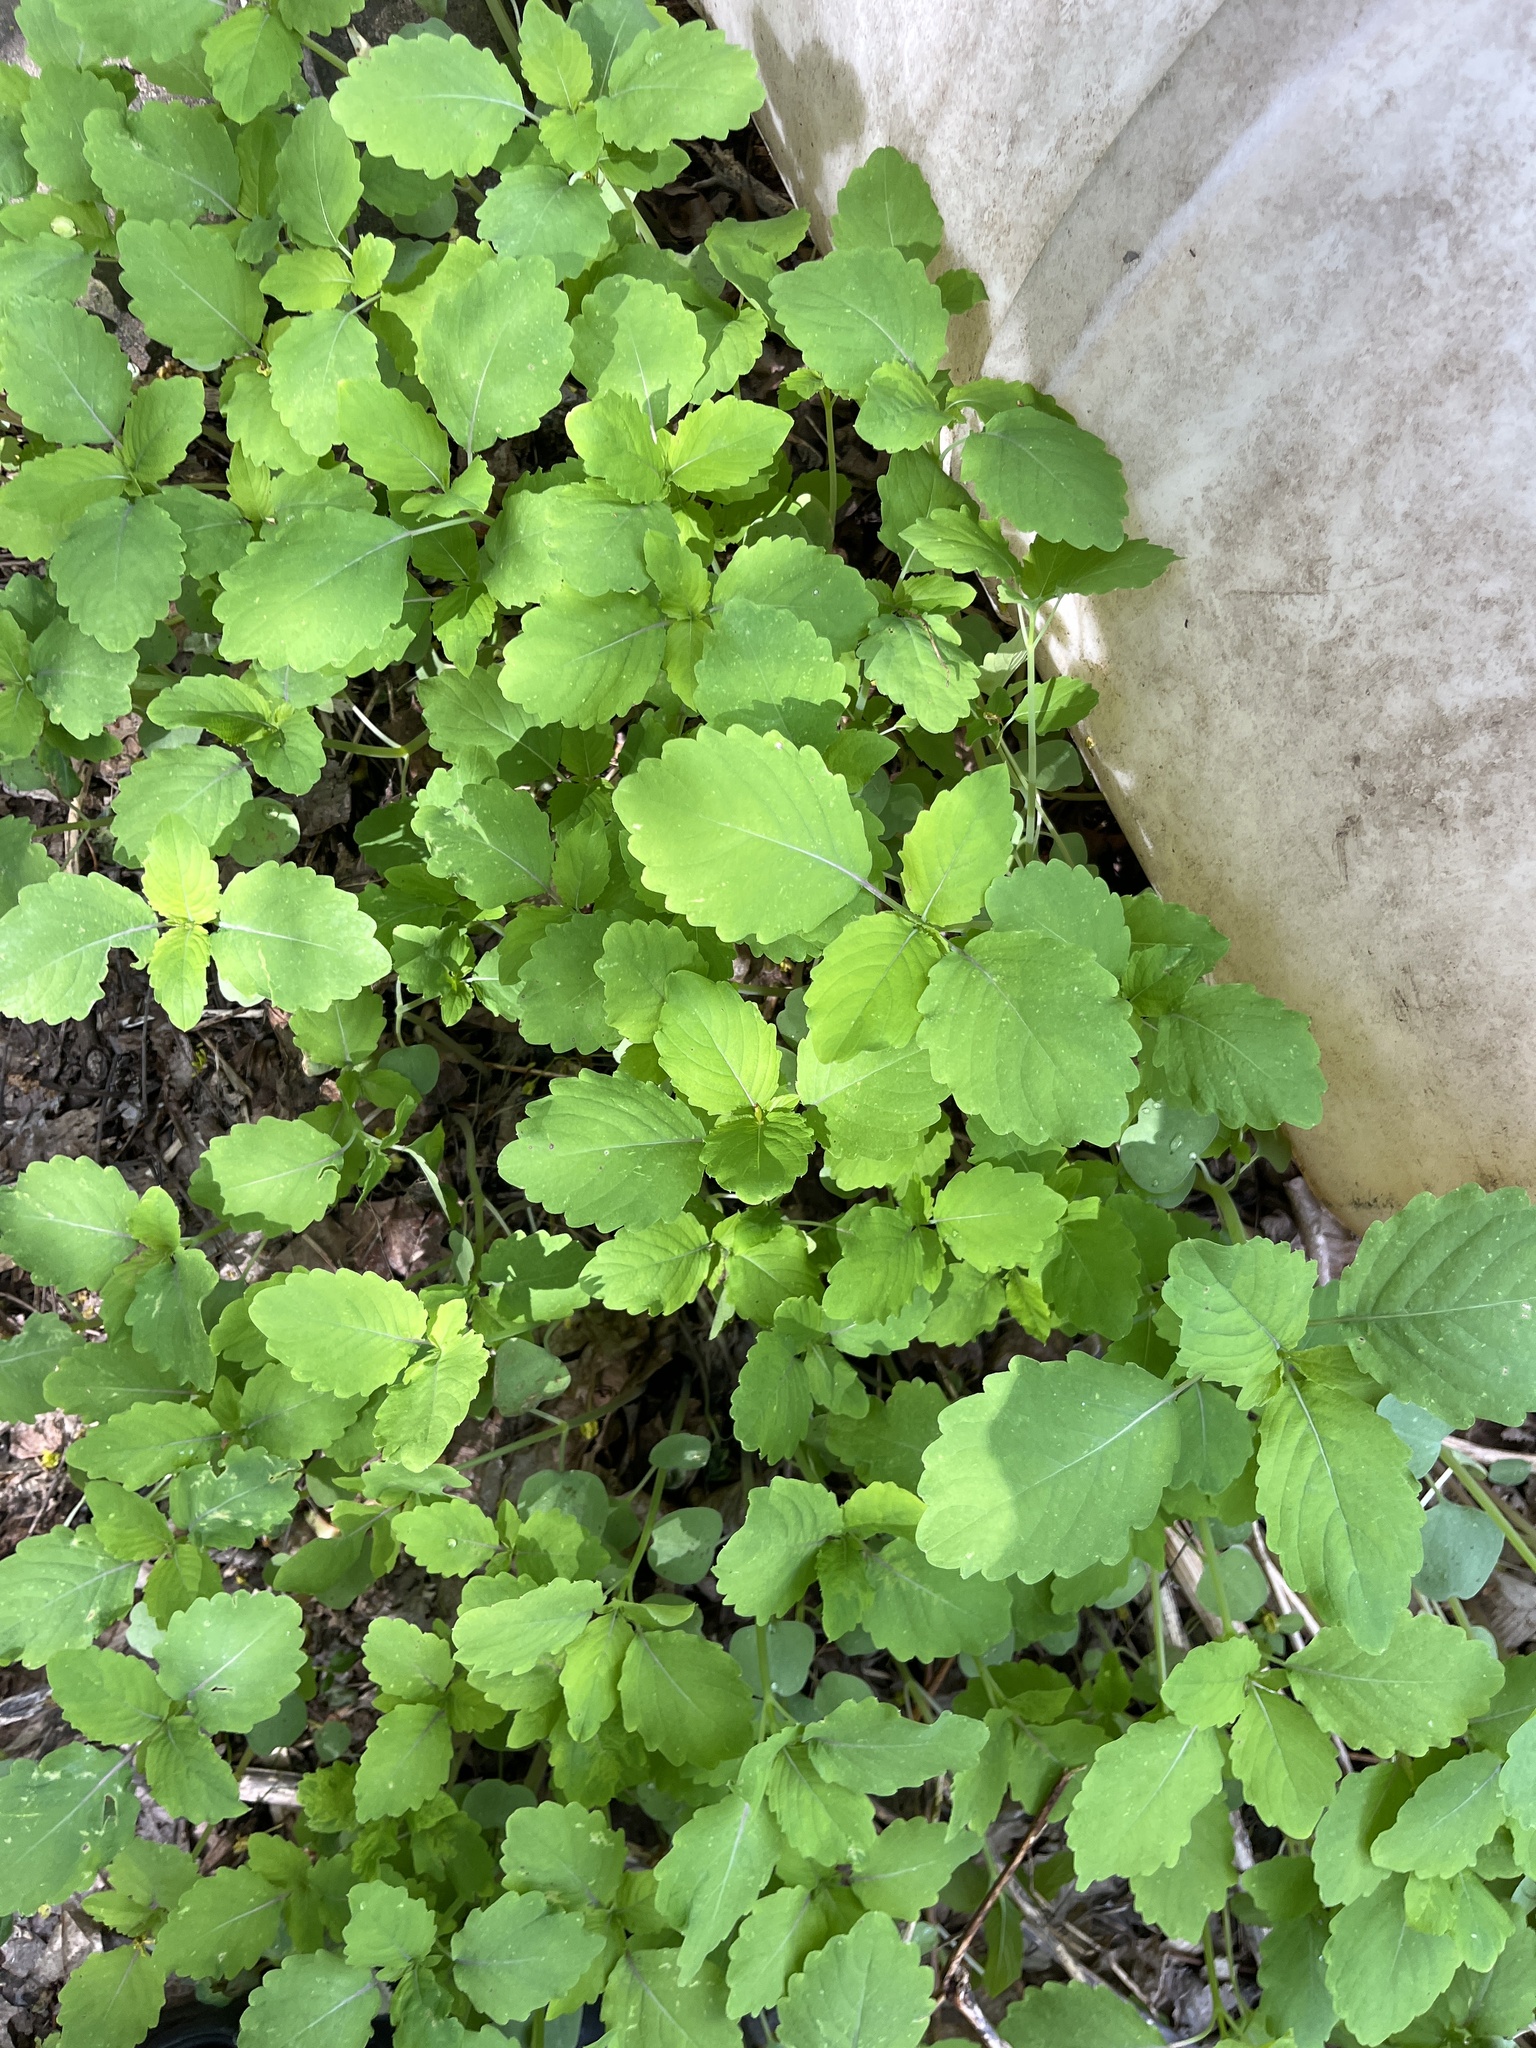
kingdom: Plantae
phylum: Tracheophyta
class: Magnoliopsida
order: Ericales
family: Balsaminaceae
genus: Impatiens
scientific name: Impatiens capensis
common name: Orange balsam
